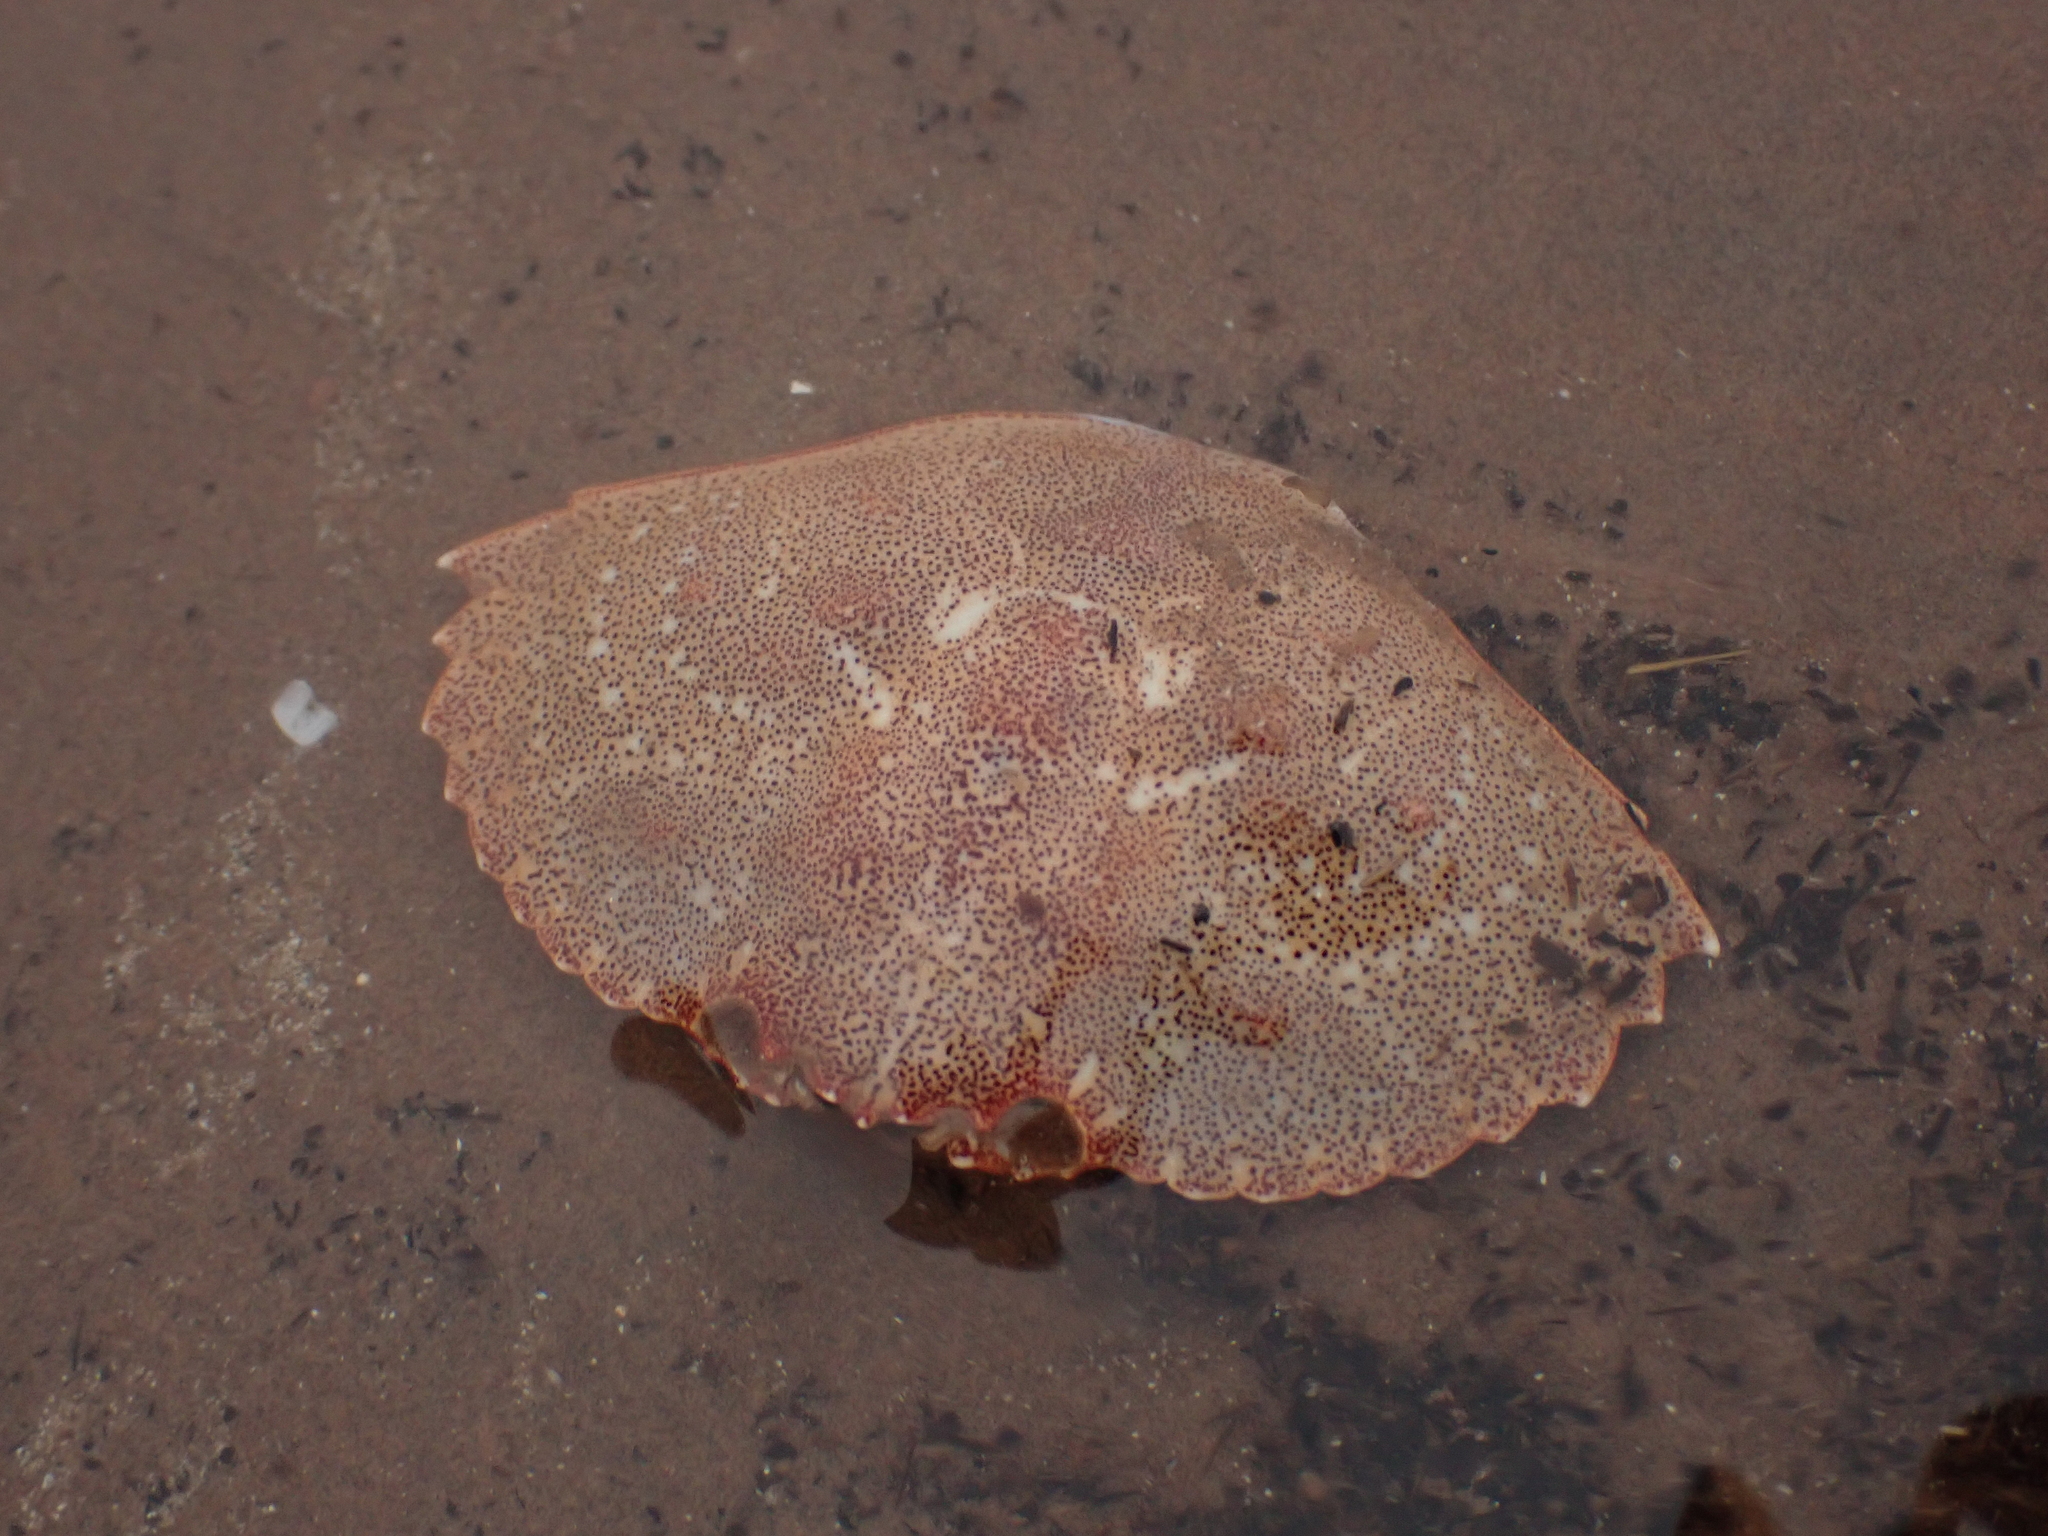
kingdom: Animalia
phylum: Arthropoda
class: Malacostraca
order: Decapoda
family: Cancridae
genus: Cancer
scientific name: Cancer irroratus
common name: Atlantic rock crab
